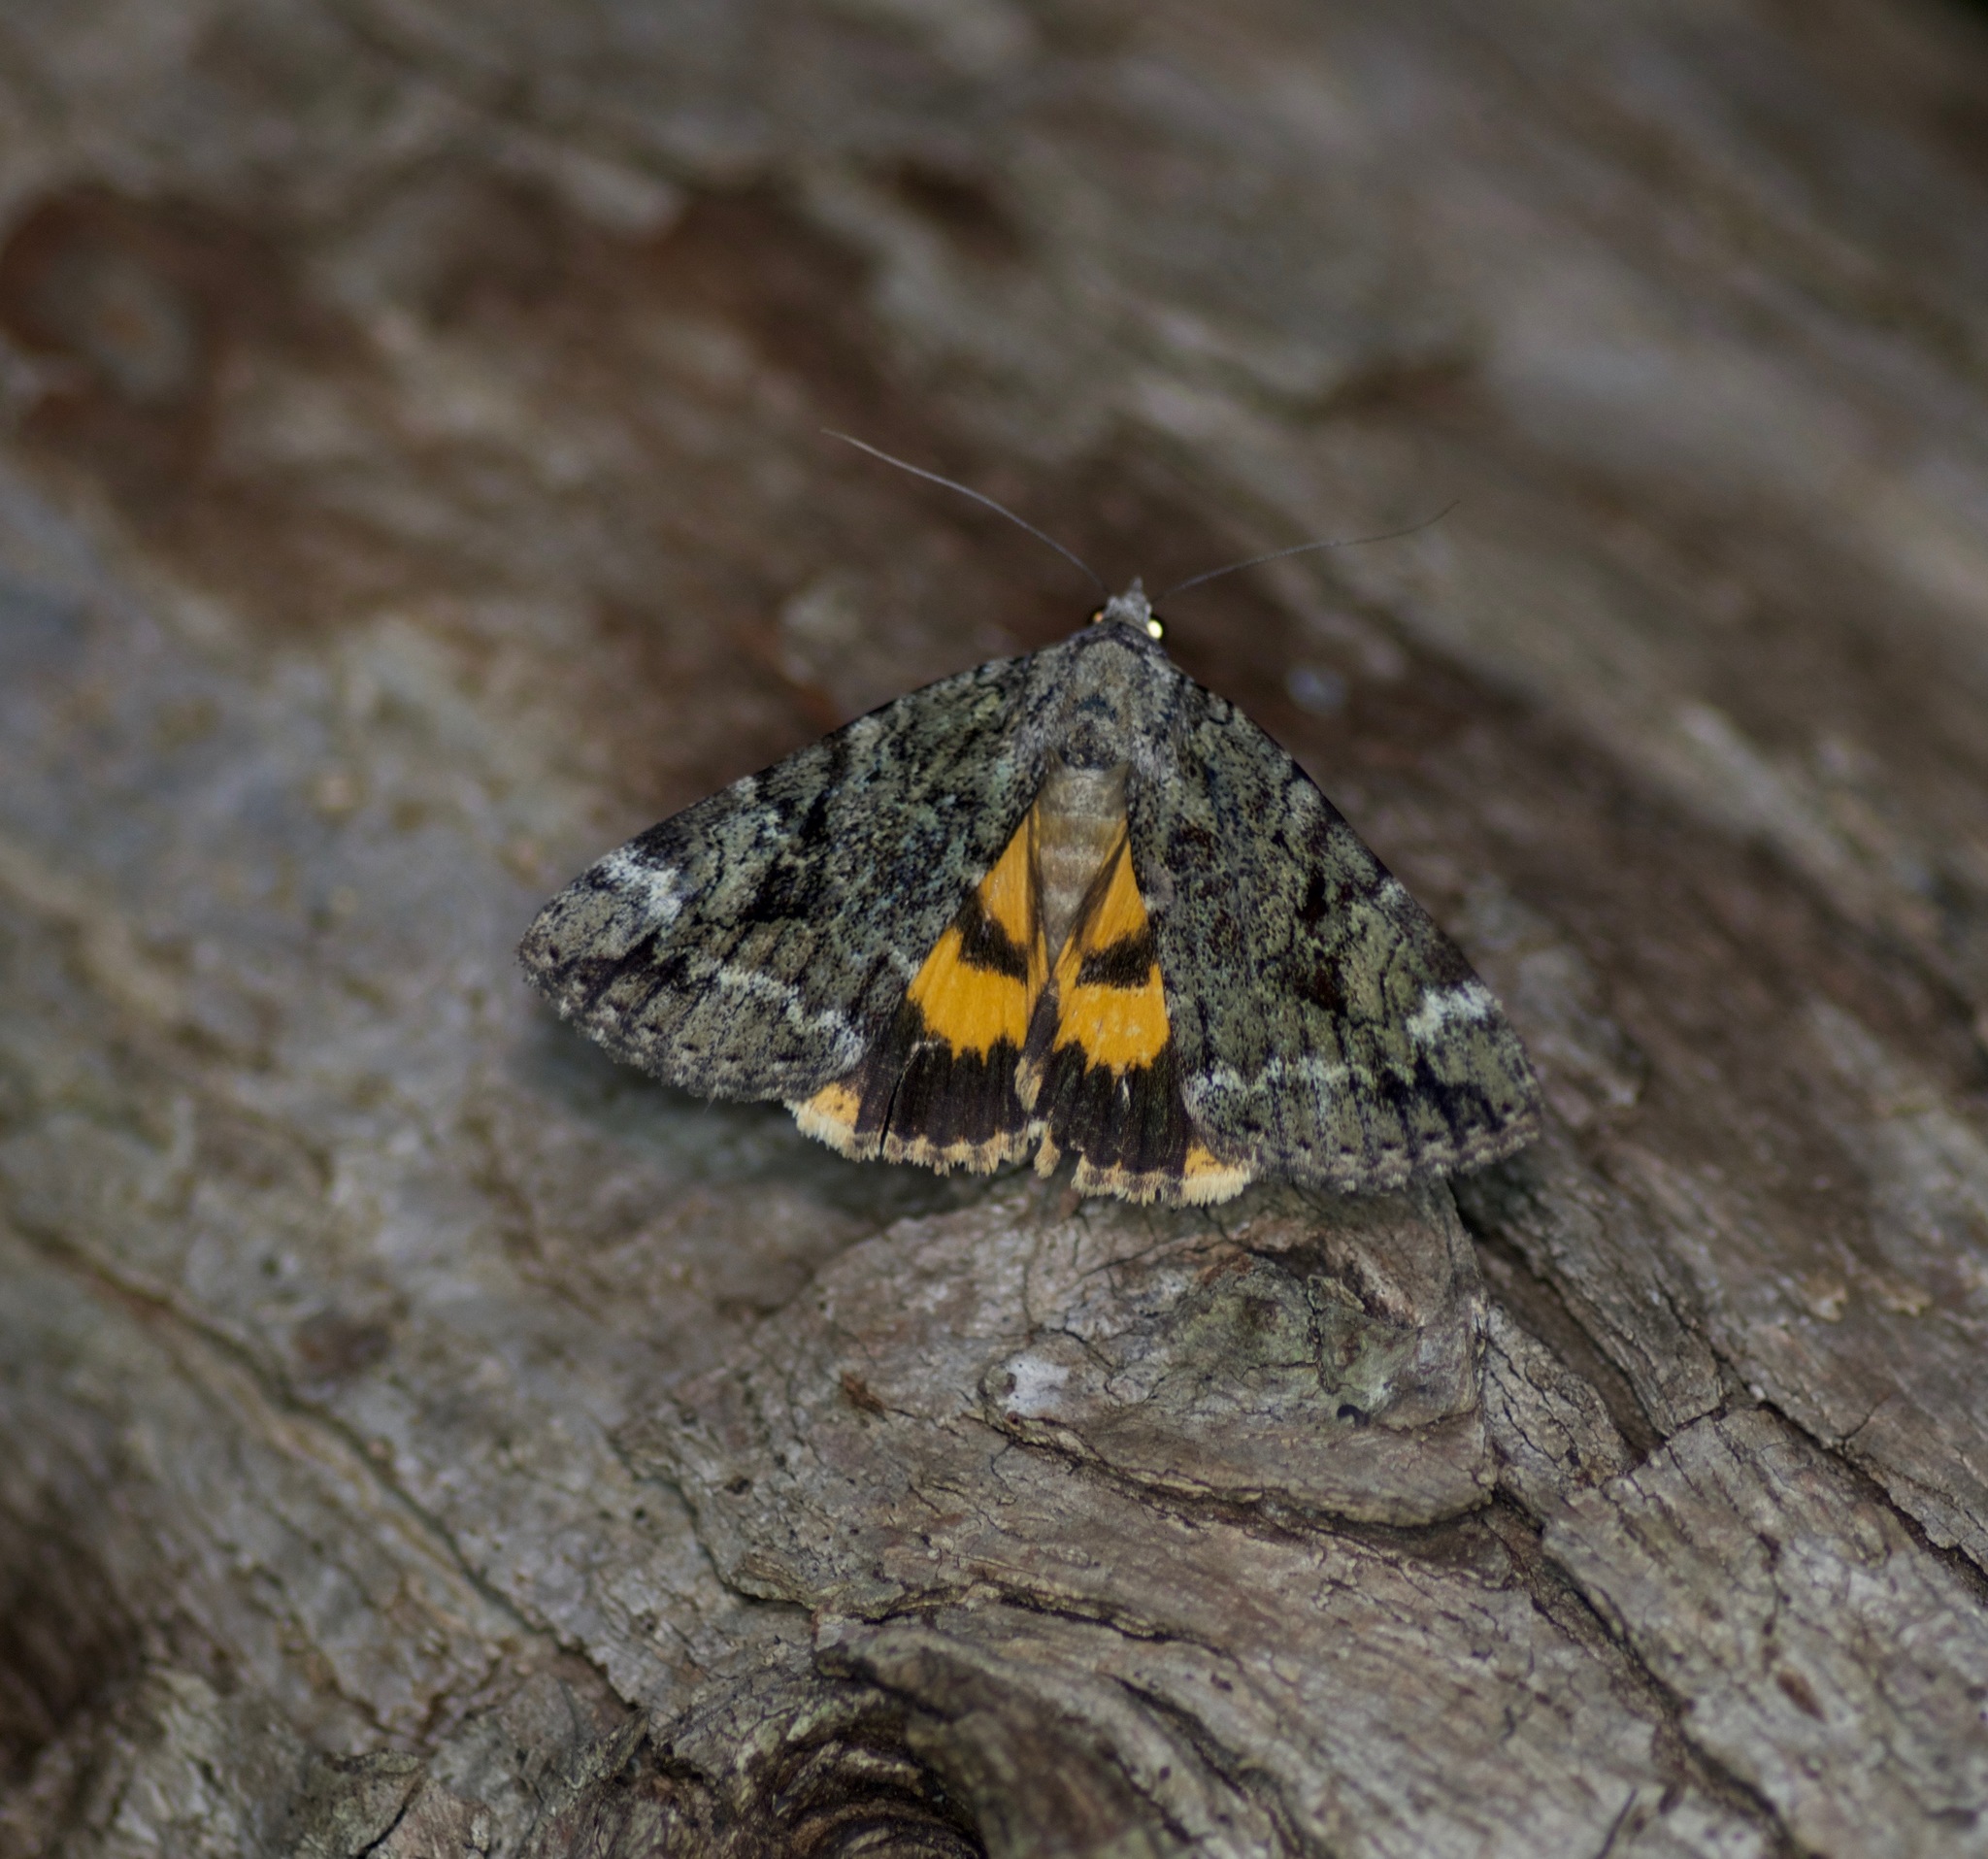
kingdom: Animalia
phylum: Arthropoda
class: Insecta
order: Lepidoptera
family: Erebidae
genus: Catocala
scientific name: Catocala micronympha
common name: Little nymph underwing
